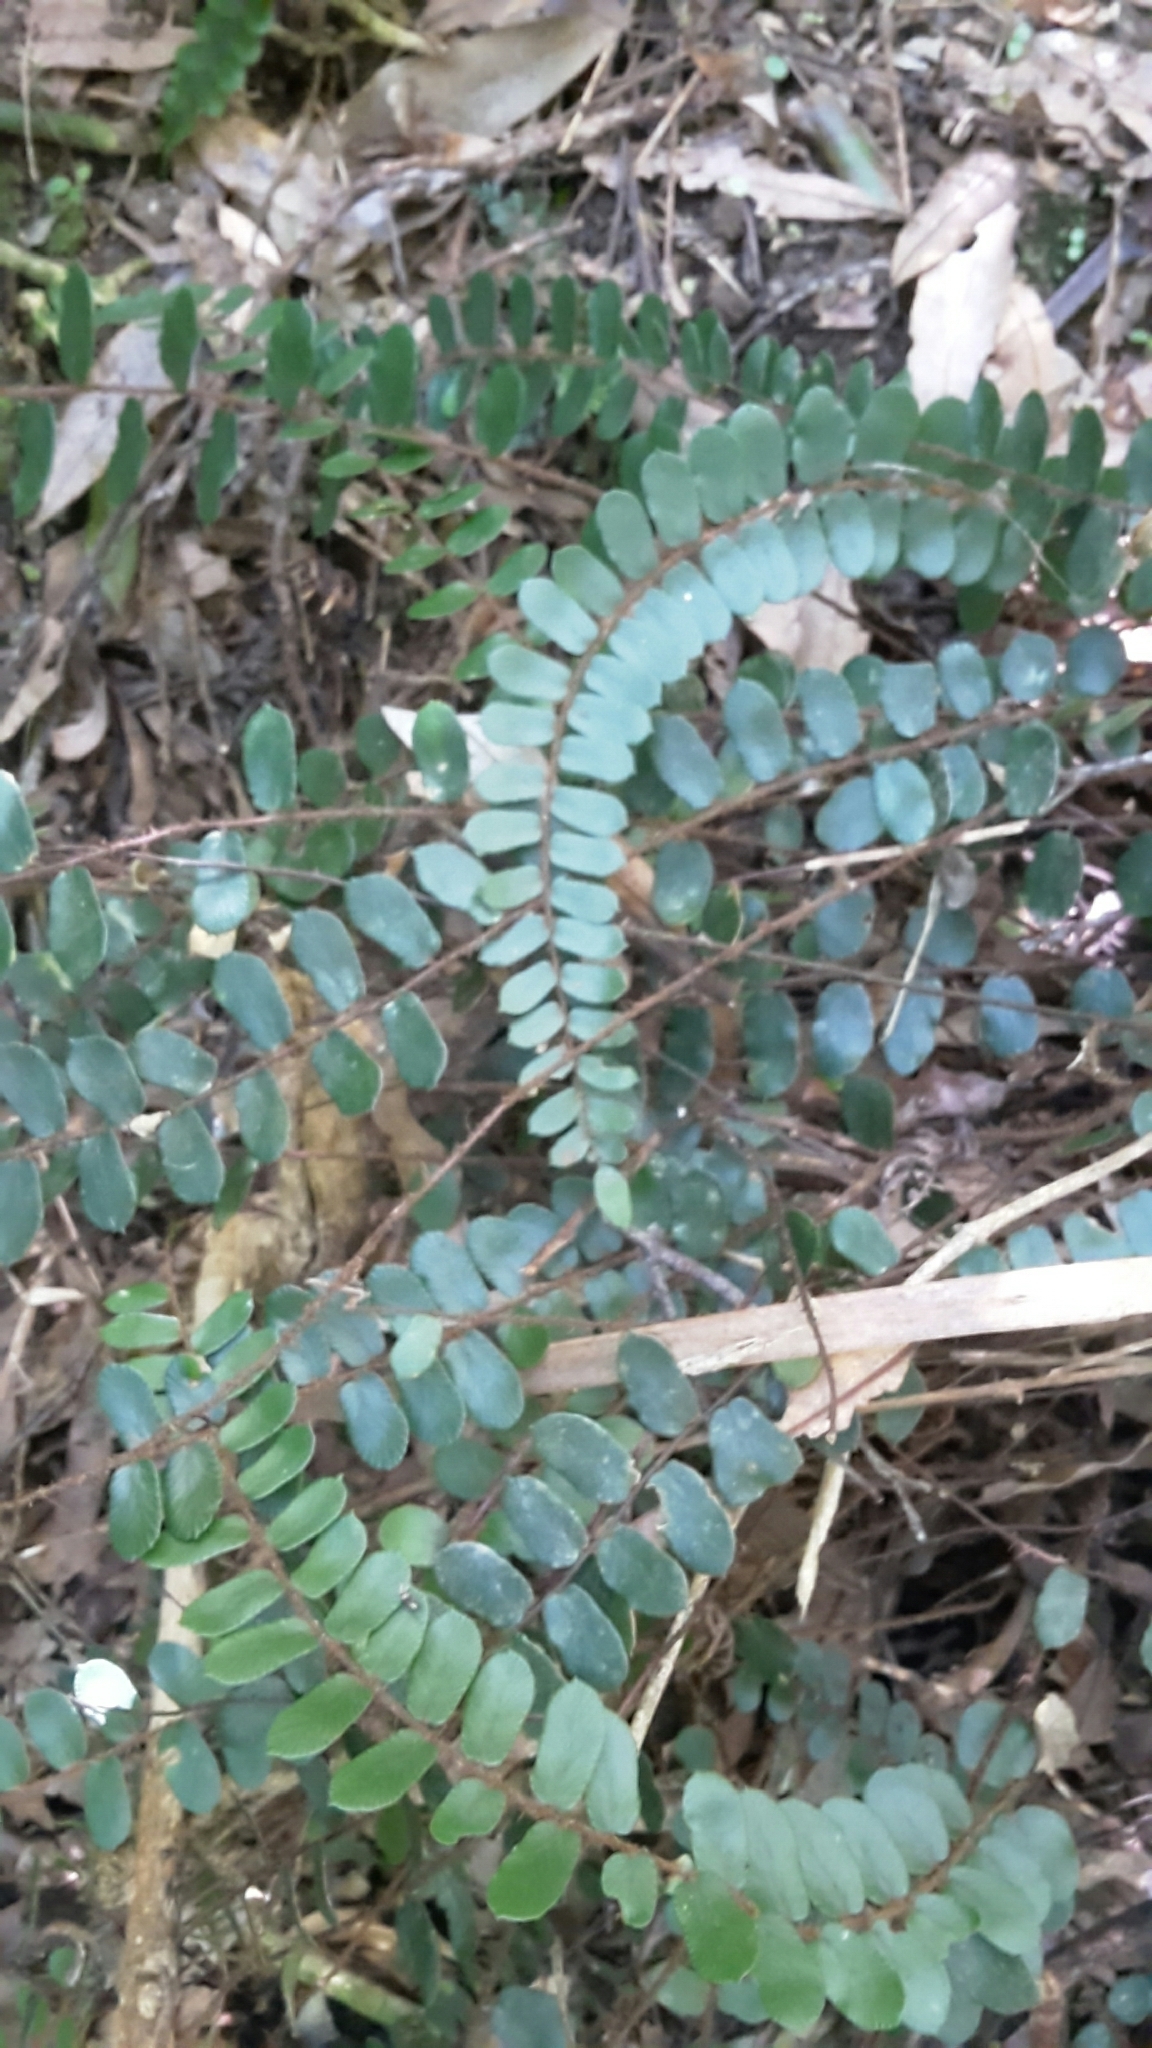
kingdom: Plantae
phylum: Tracheophyta
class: Polypodiopsida
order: Polypodiales
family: Pteridaceae
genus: Pellaea
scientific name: Pellaea rotundifolia
